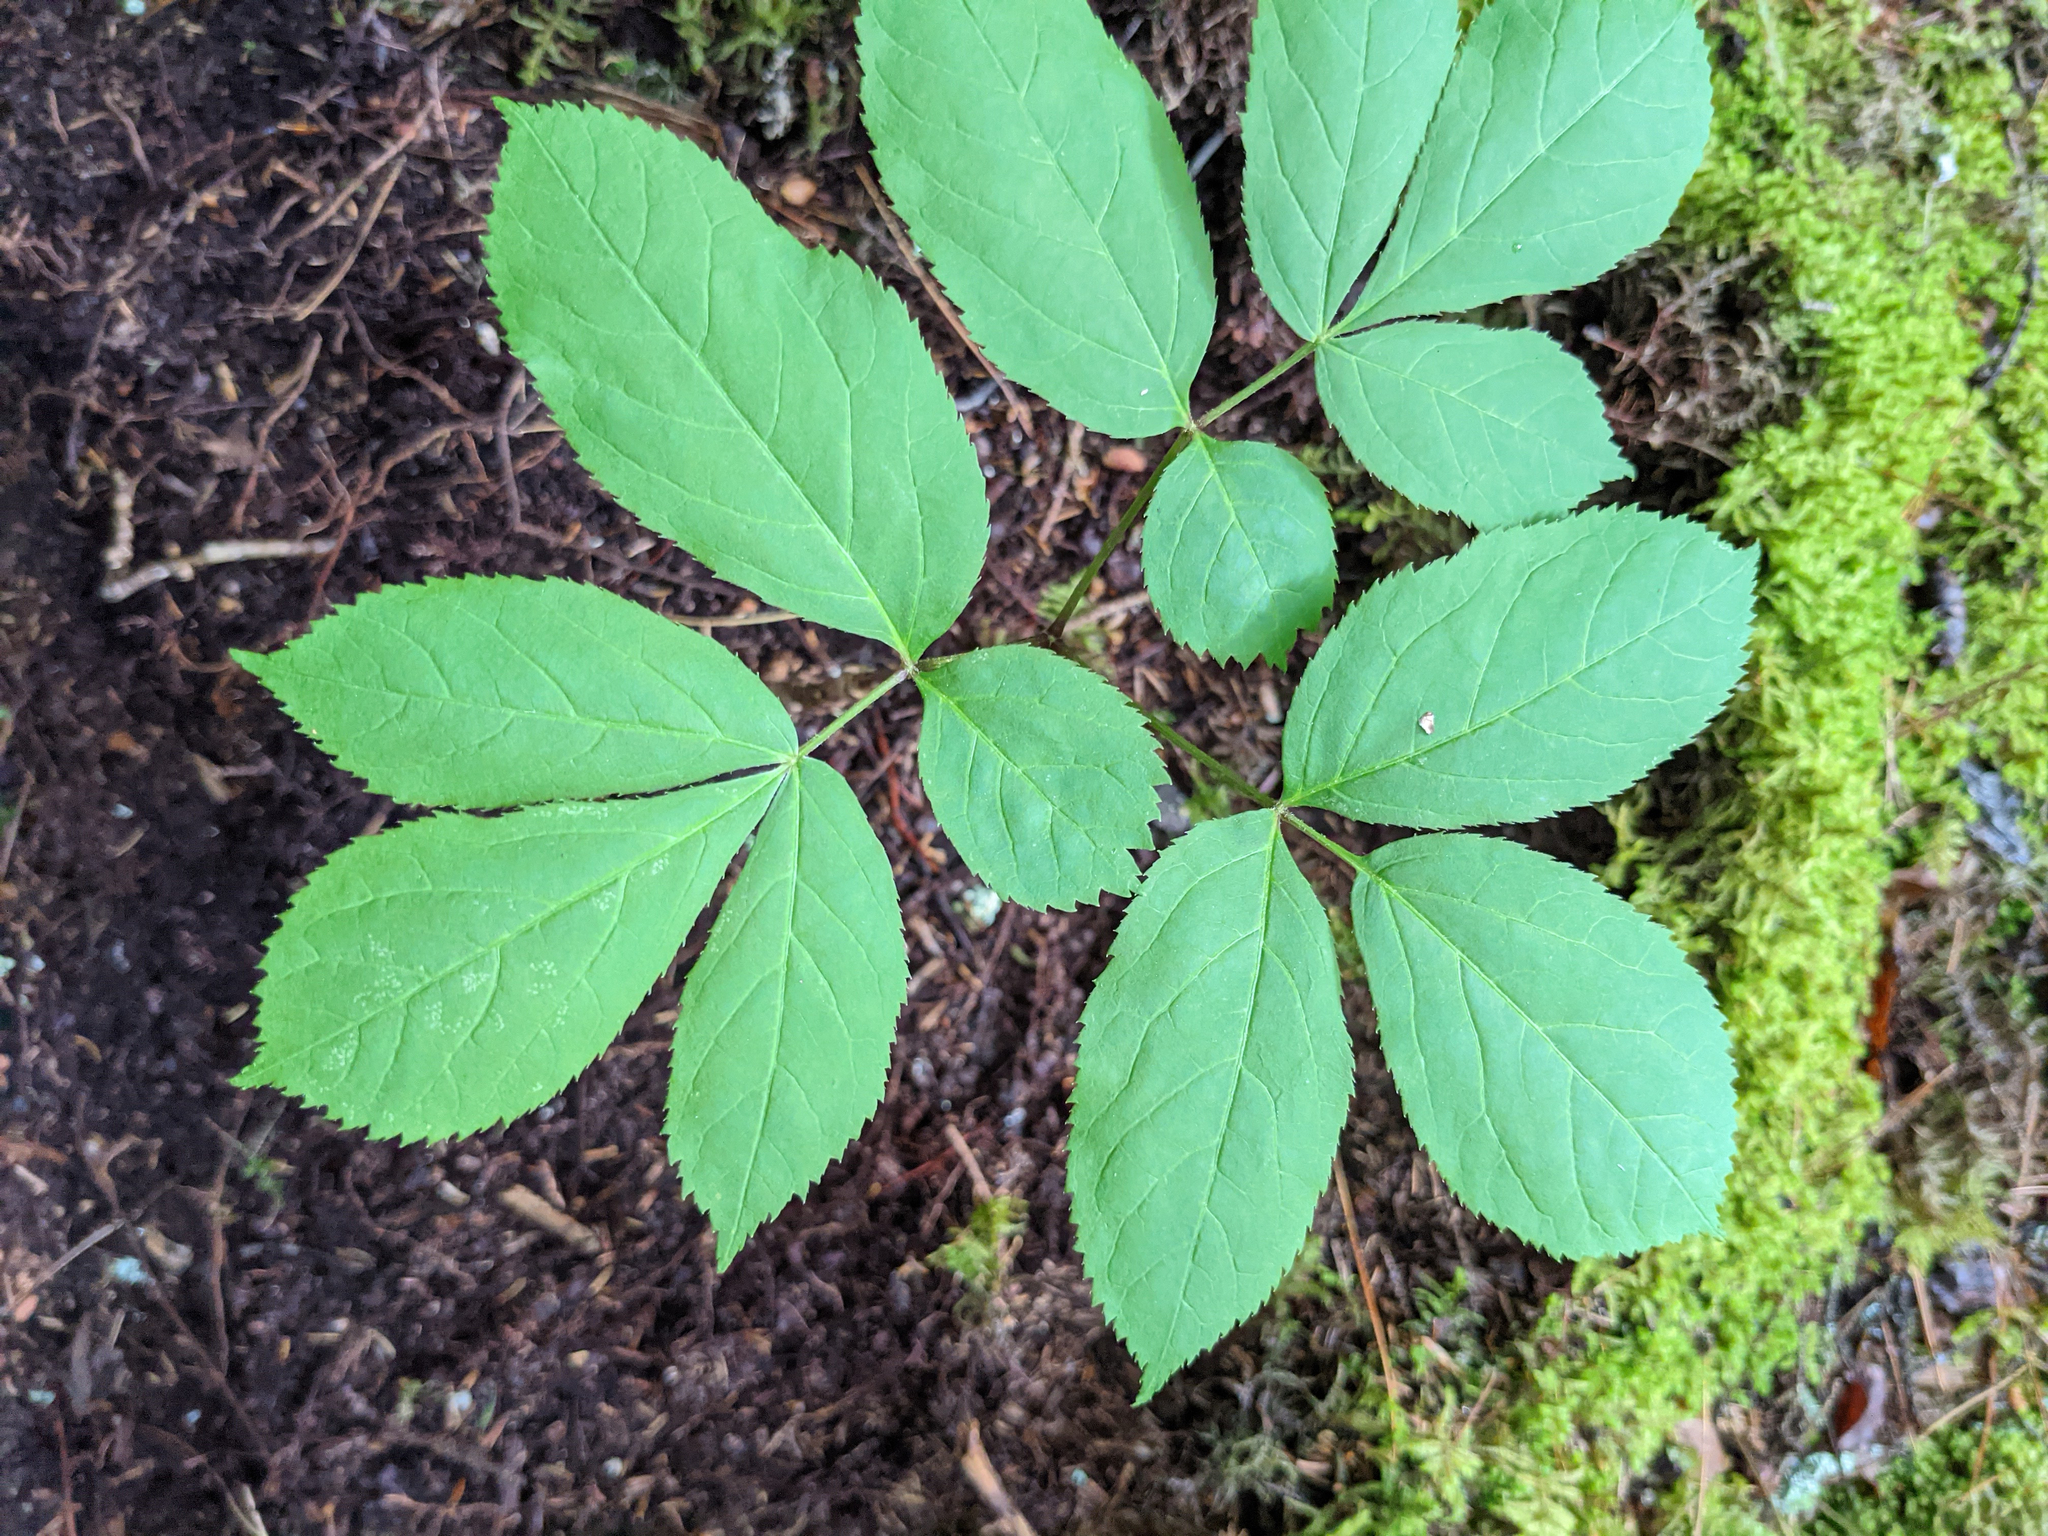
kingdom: Plantae
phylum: Tracheophyta
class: Magnoliopsida
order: Apiales
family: Araliaceae
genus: Aralia
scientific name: Aralia nudicaulis
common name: Wild sarsaparilla
